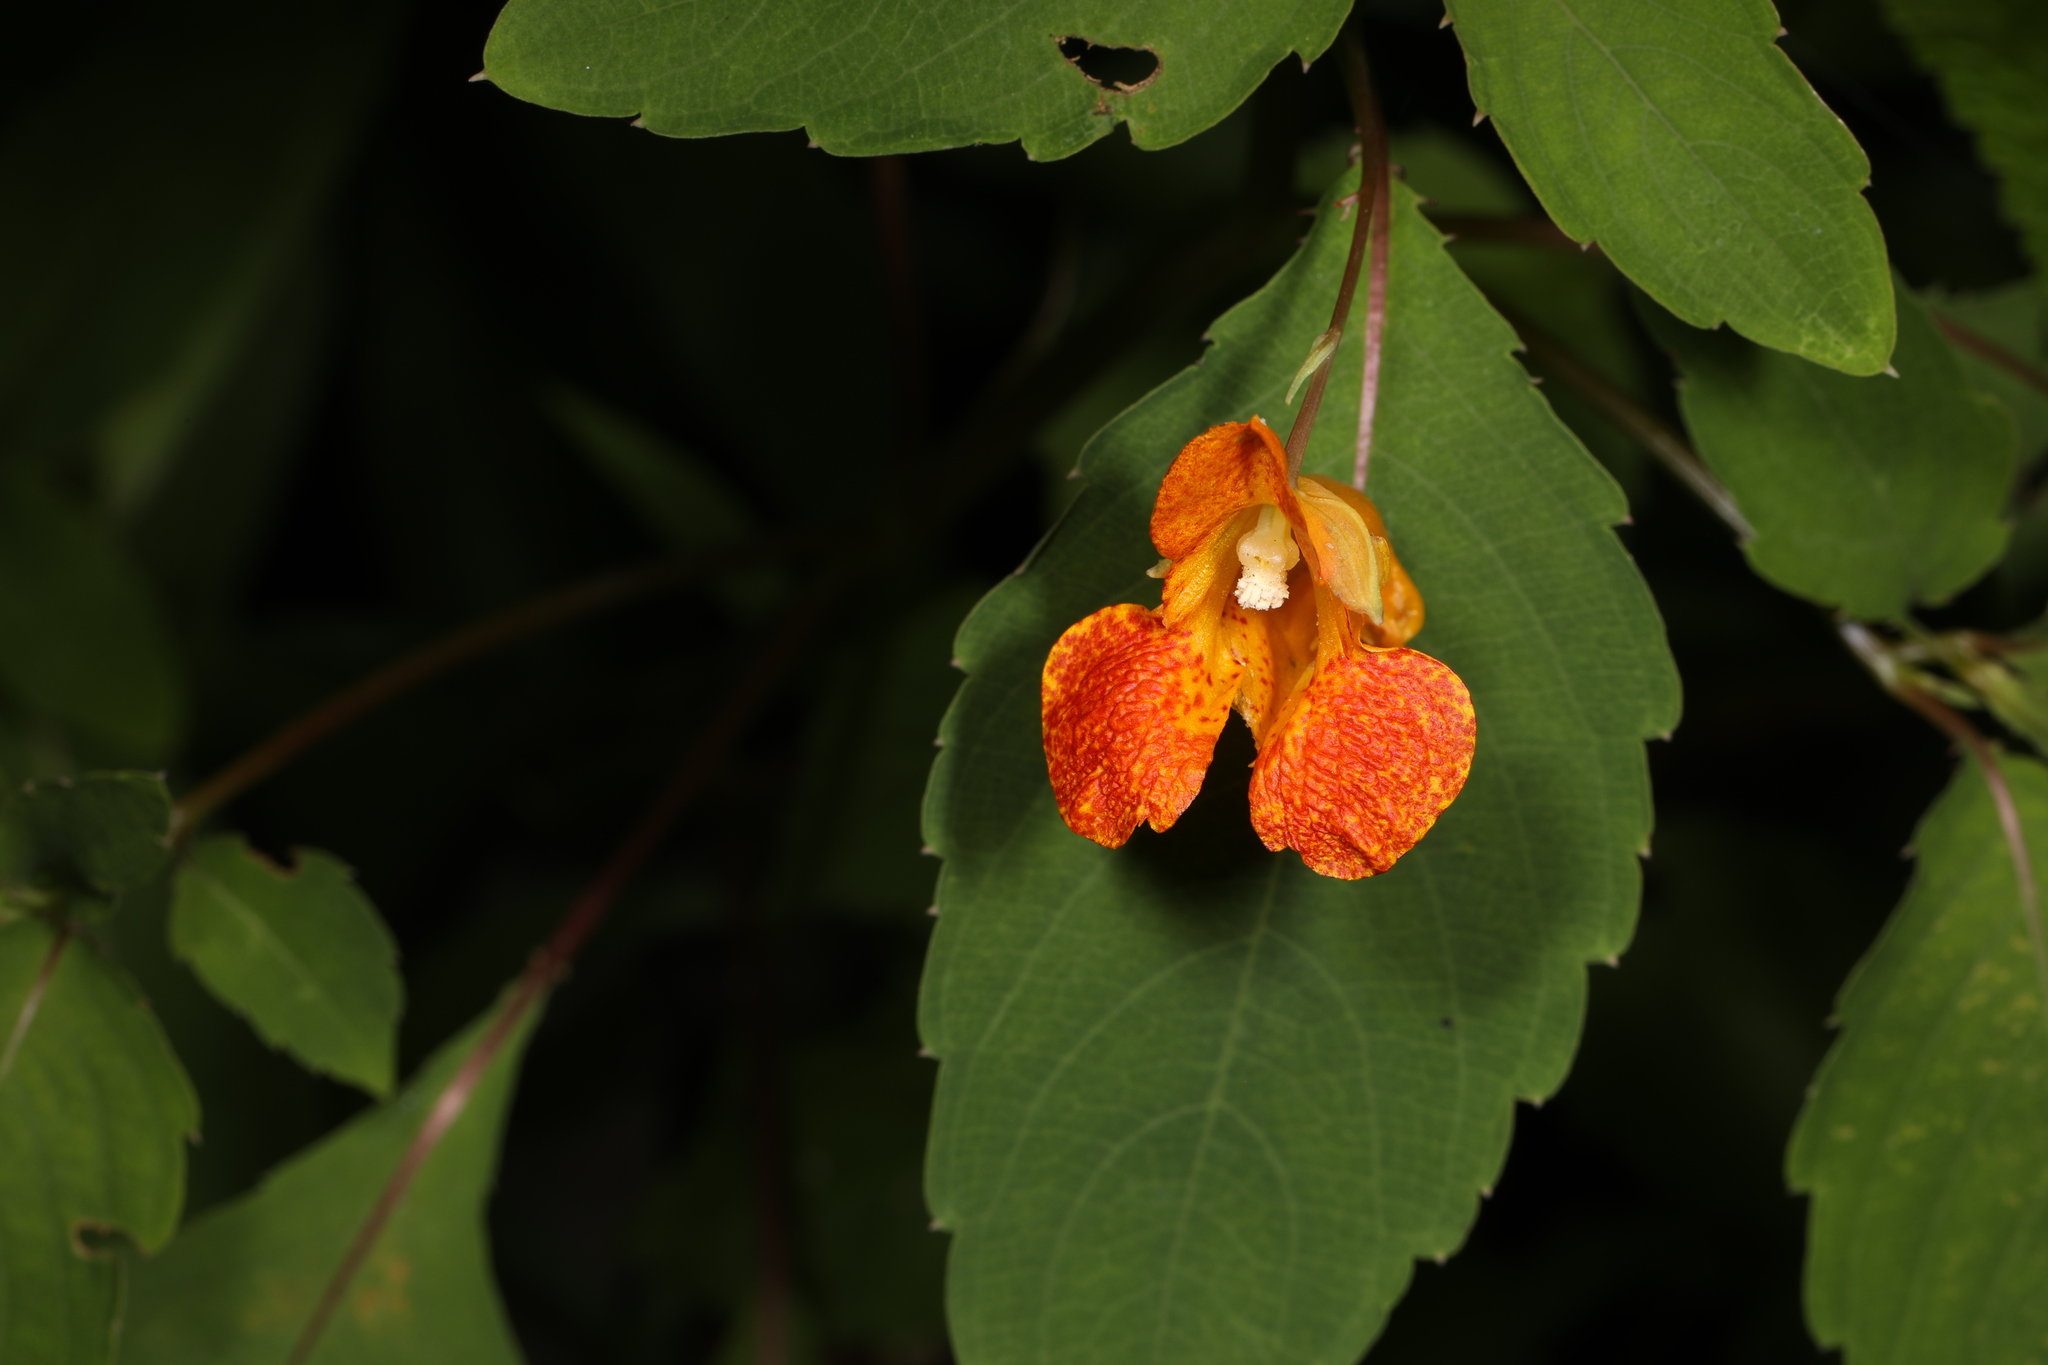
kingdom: Plantae
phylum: Tracheophyta
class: Magnoliopsida
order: Ericales
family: Balsaminaceae
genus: Impatiens
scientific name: Impatiens capensis
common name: Orange balsam
